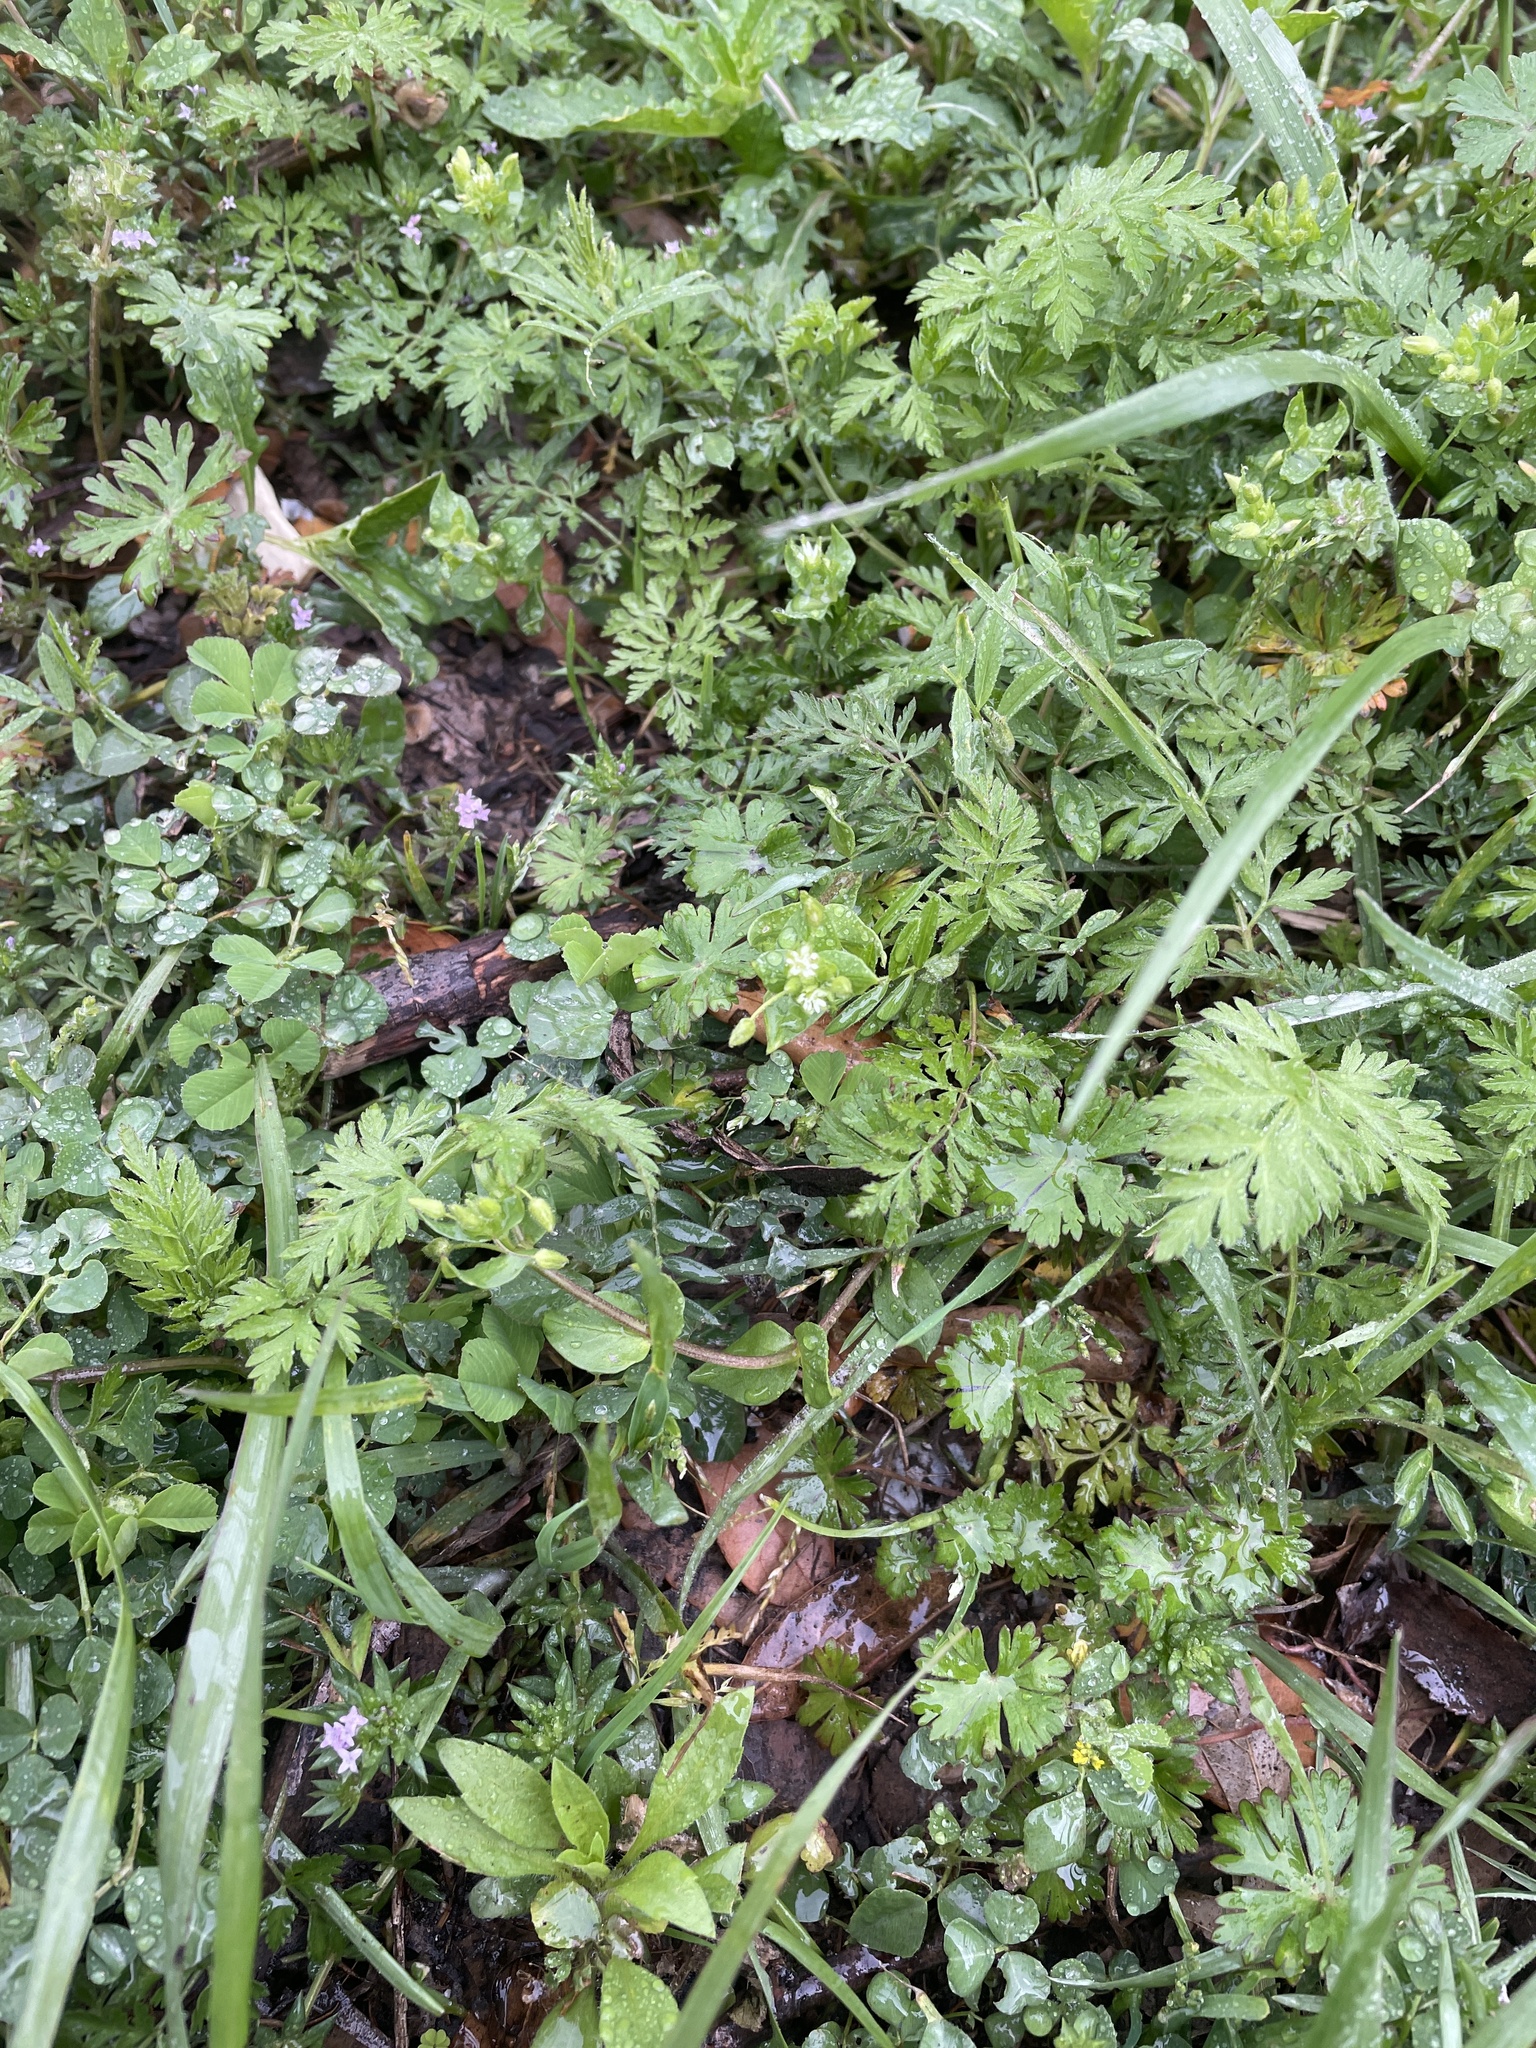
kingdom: Plantae
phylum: Tracheophyta
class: Magnoliopsida
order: Caryophyllales
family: Caryophyllaceae
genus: Stellaria
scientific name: Stellaria media
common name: Common chickweed
